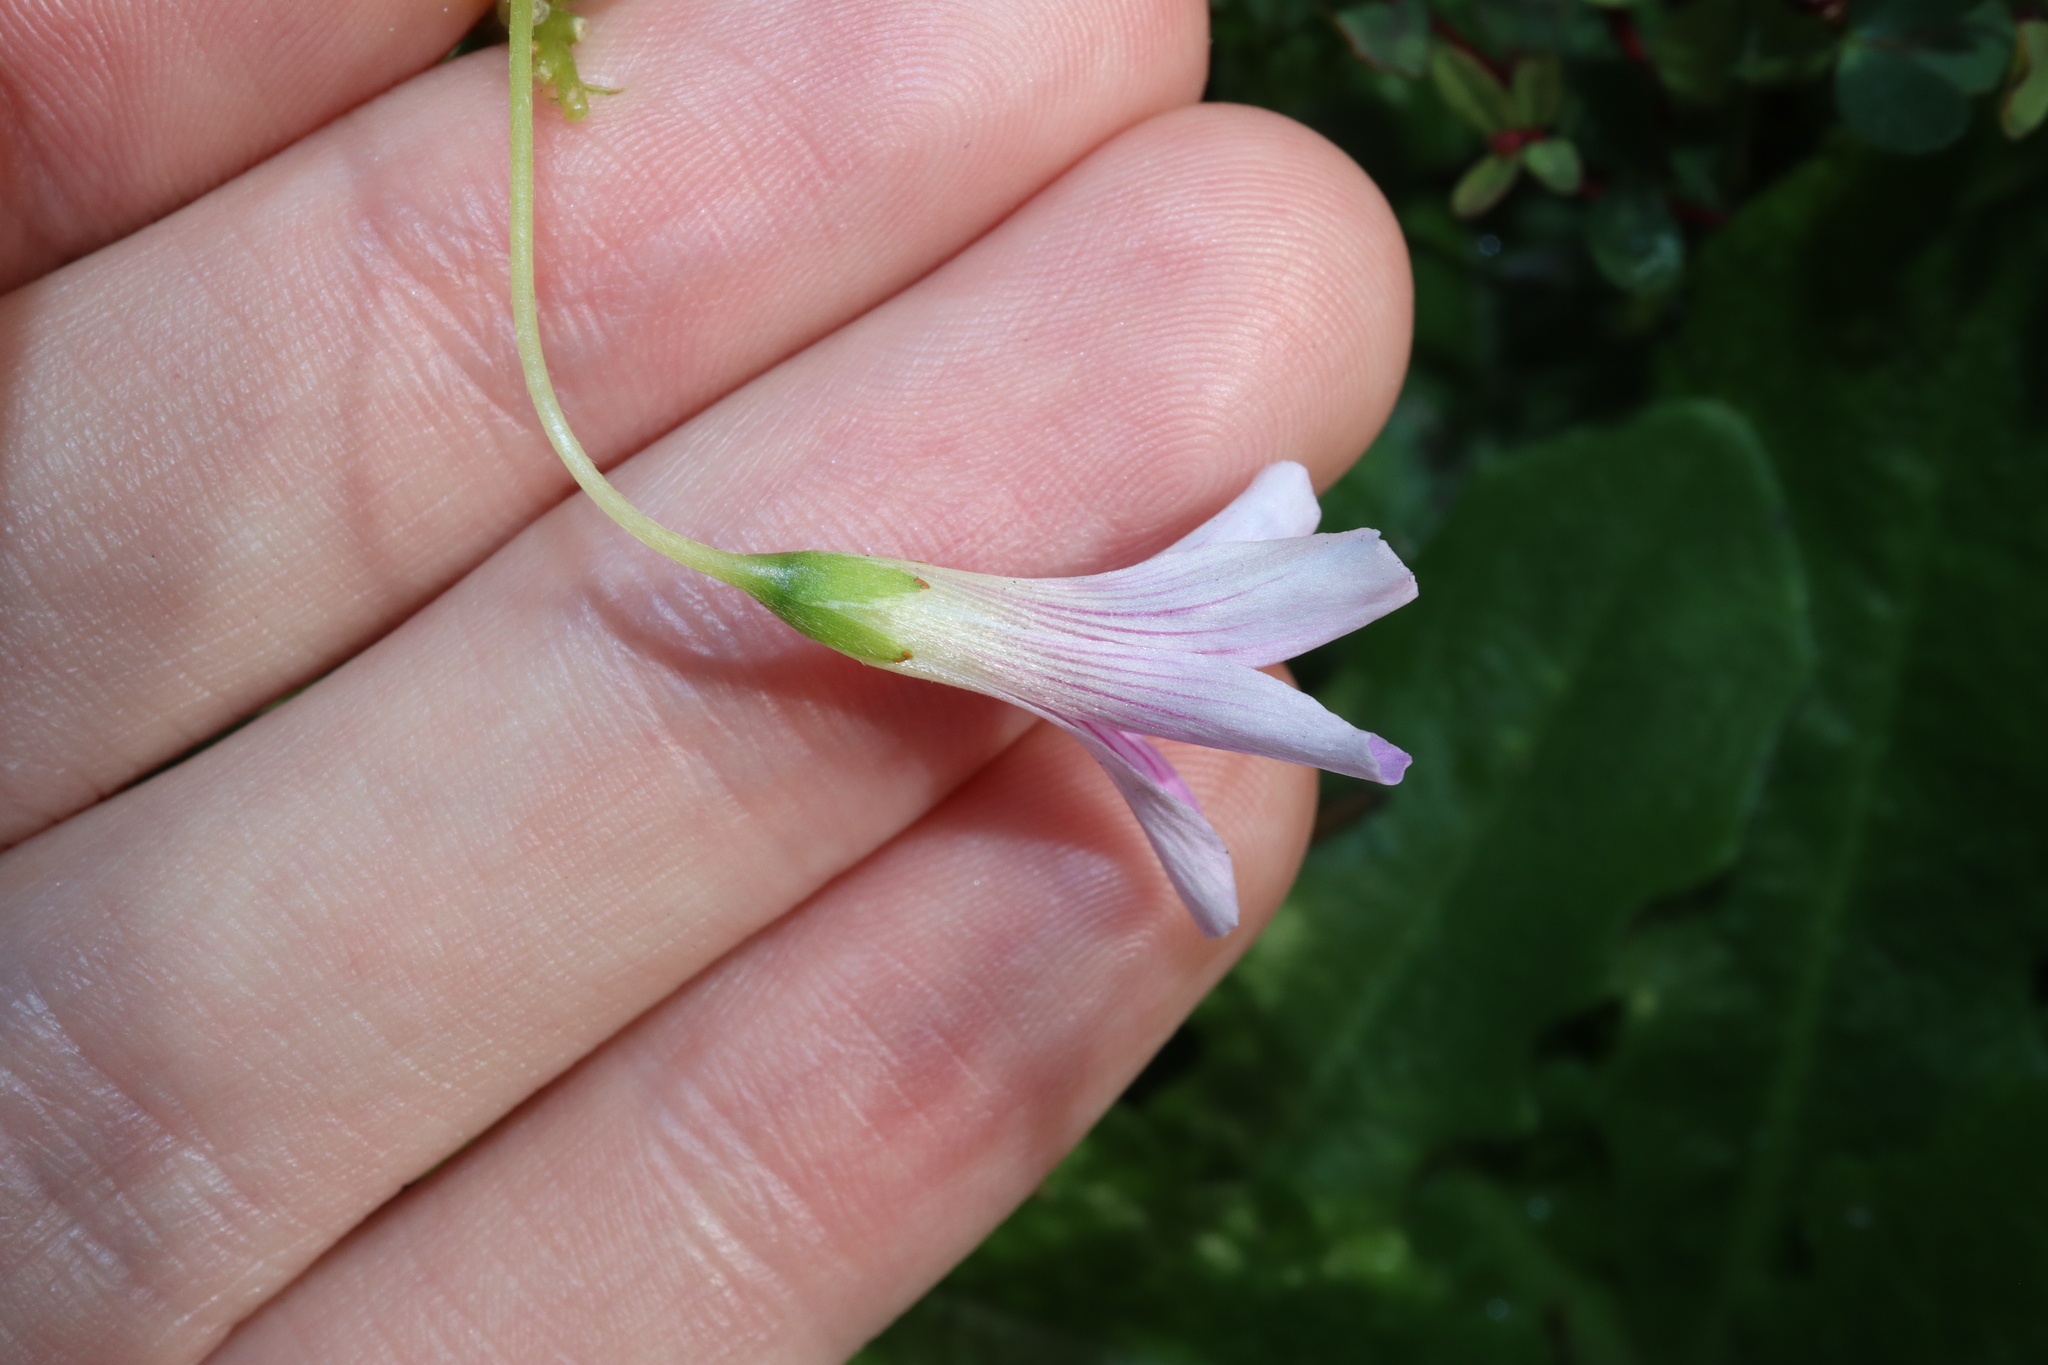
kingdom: Plantae
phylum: Tracheophyta
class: Magnoliopsida
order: Oxalidales
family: Oxalidaceae
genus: Oxalis
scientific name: Oxalis debilis
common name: Large-flowered pink-sorrel
